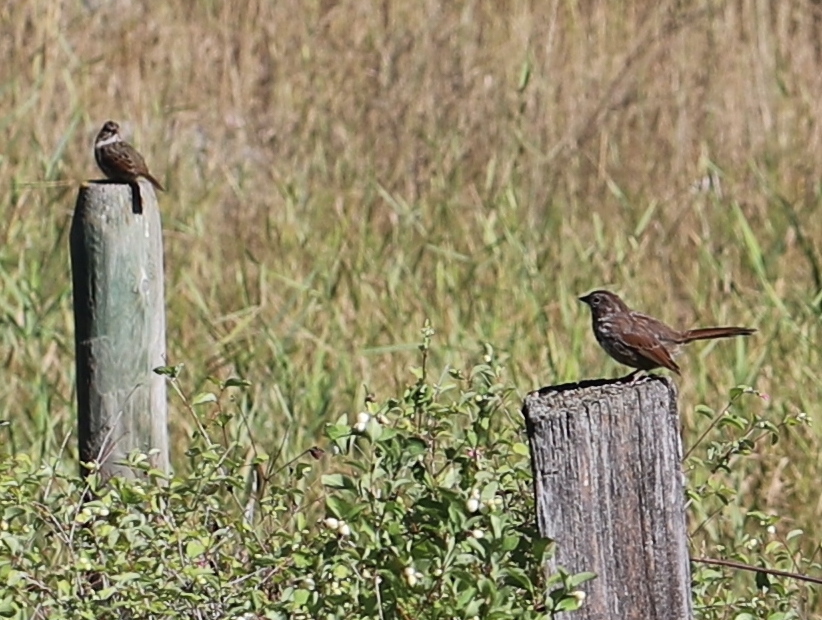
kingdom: Animalia
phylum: Chordata
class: Aves
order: Passeriformes
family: Passerellidae
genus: Melospiza
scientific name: Melospiza melodia
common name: Song sparrow
